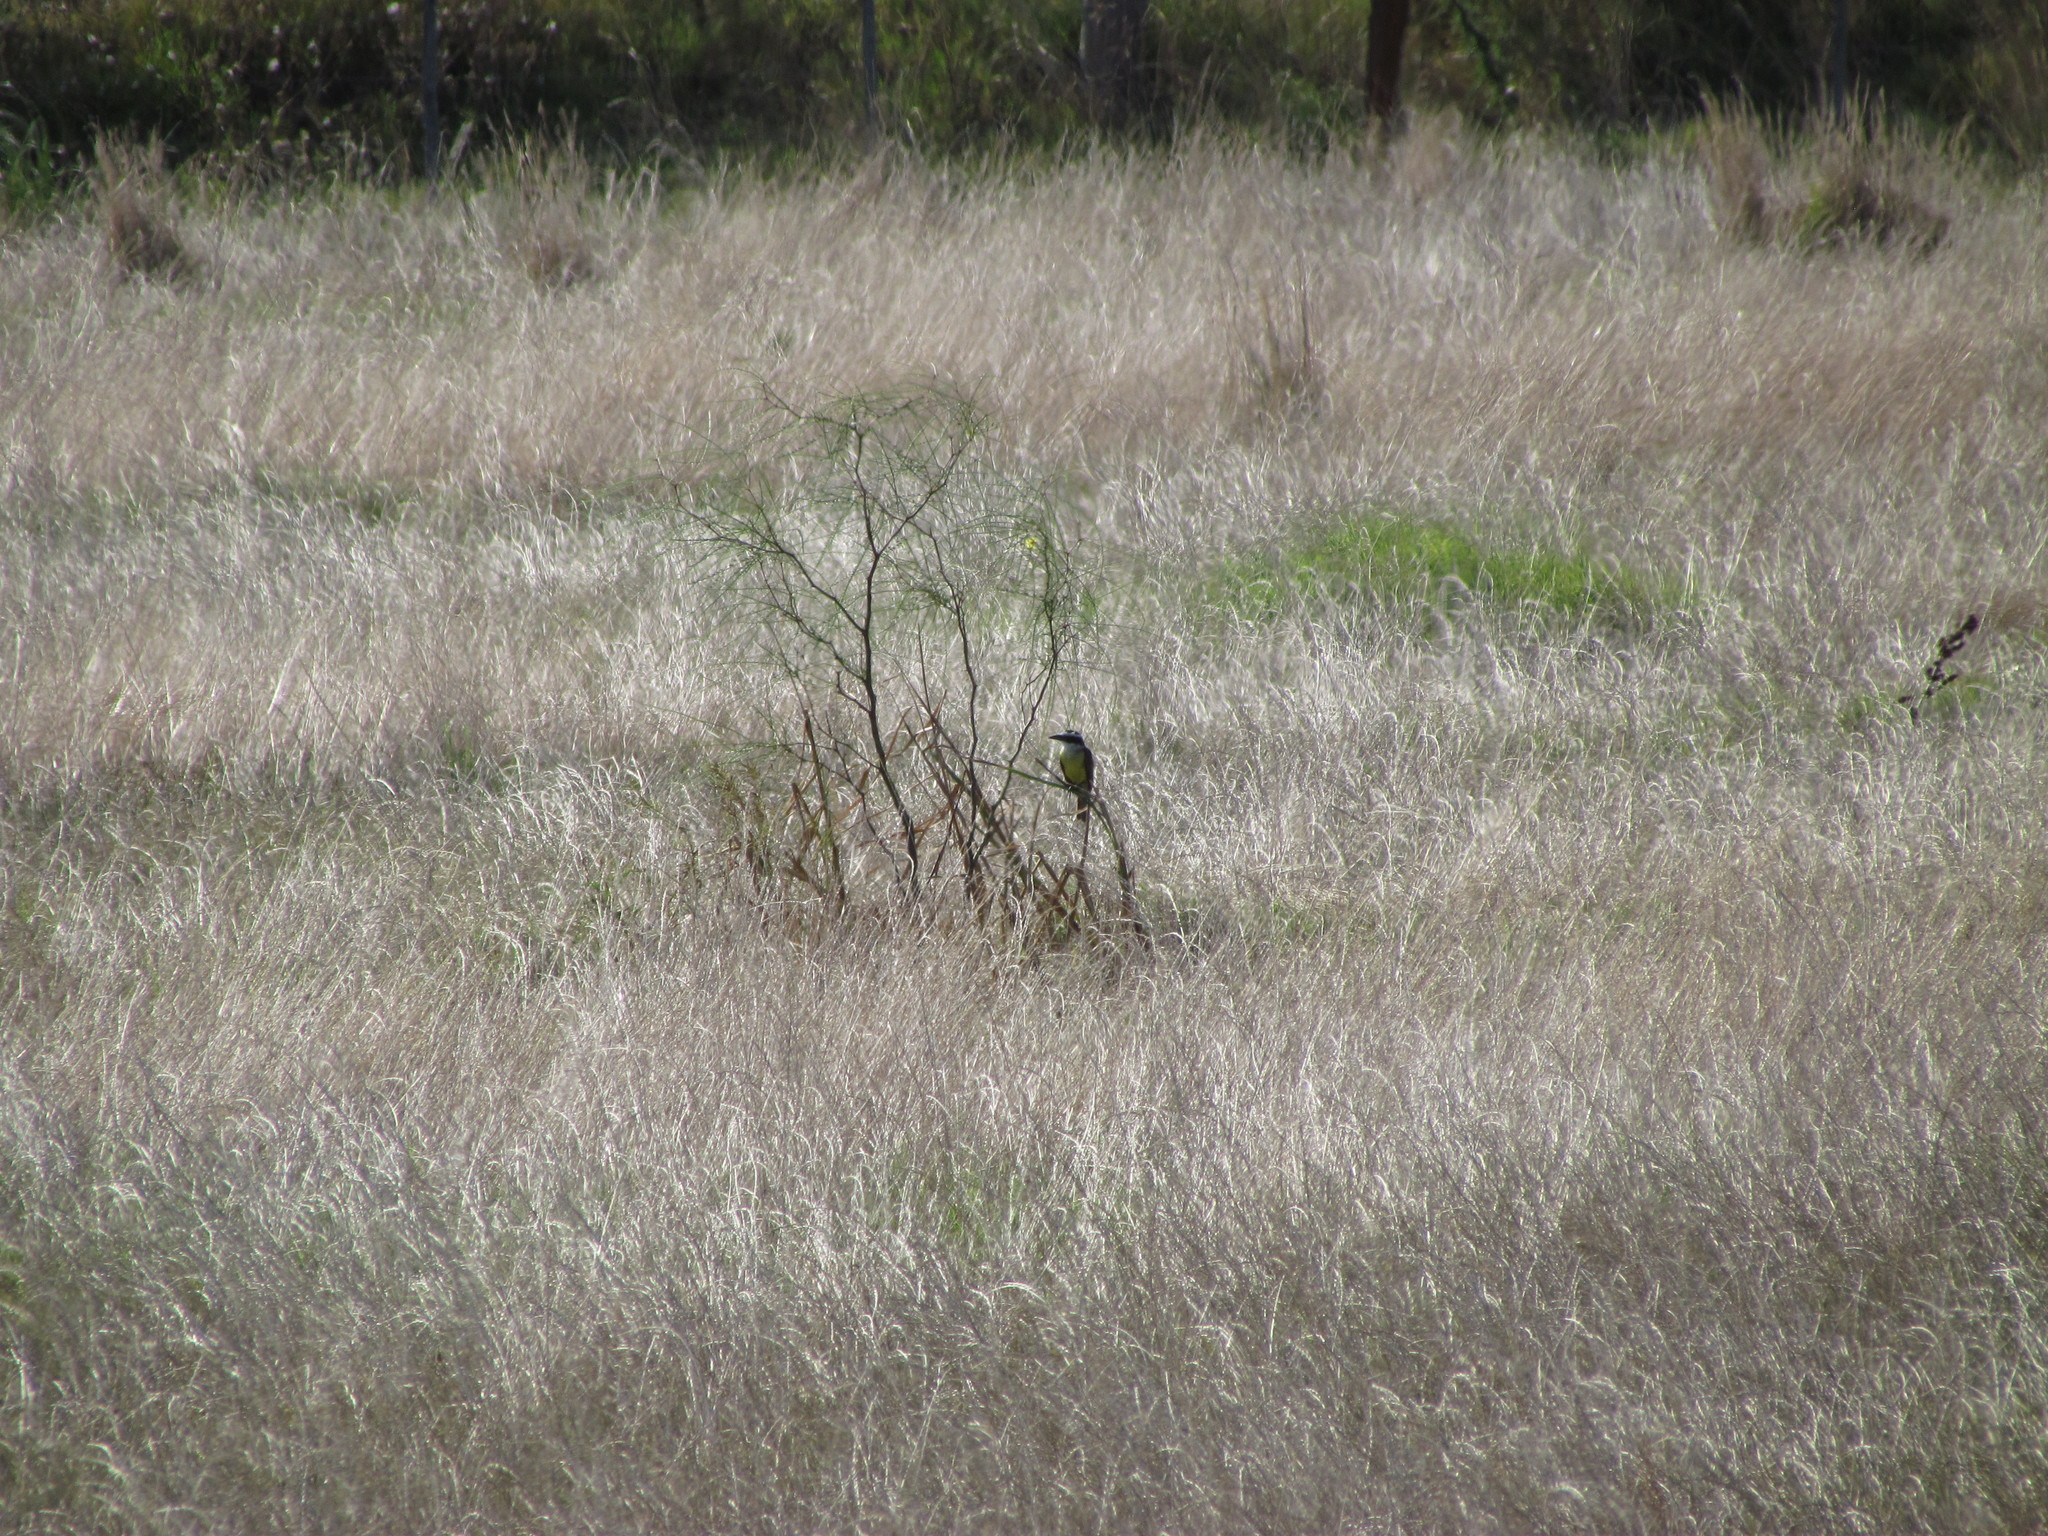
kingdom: Animalia
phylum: Chordata
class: Aves
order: Passeriformes
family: Tyrannidae
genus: Pitangus
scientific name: Pitangus sulphuratus
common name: Great kiskadee
